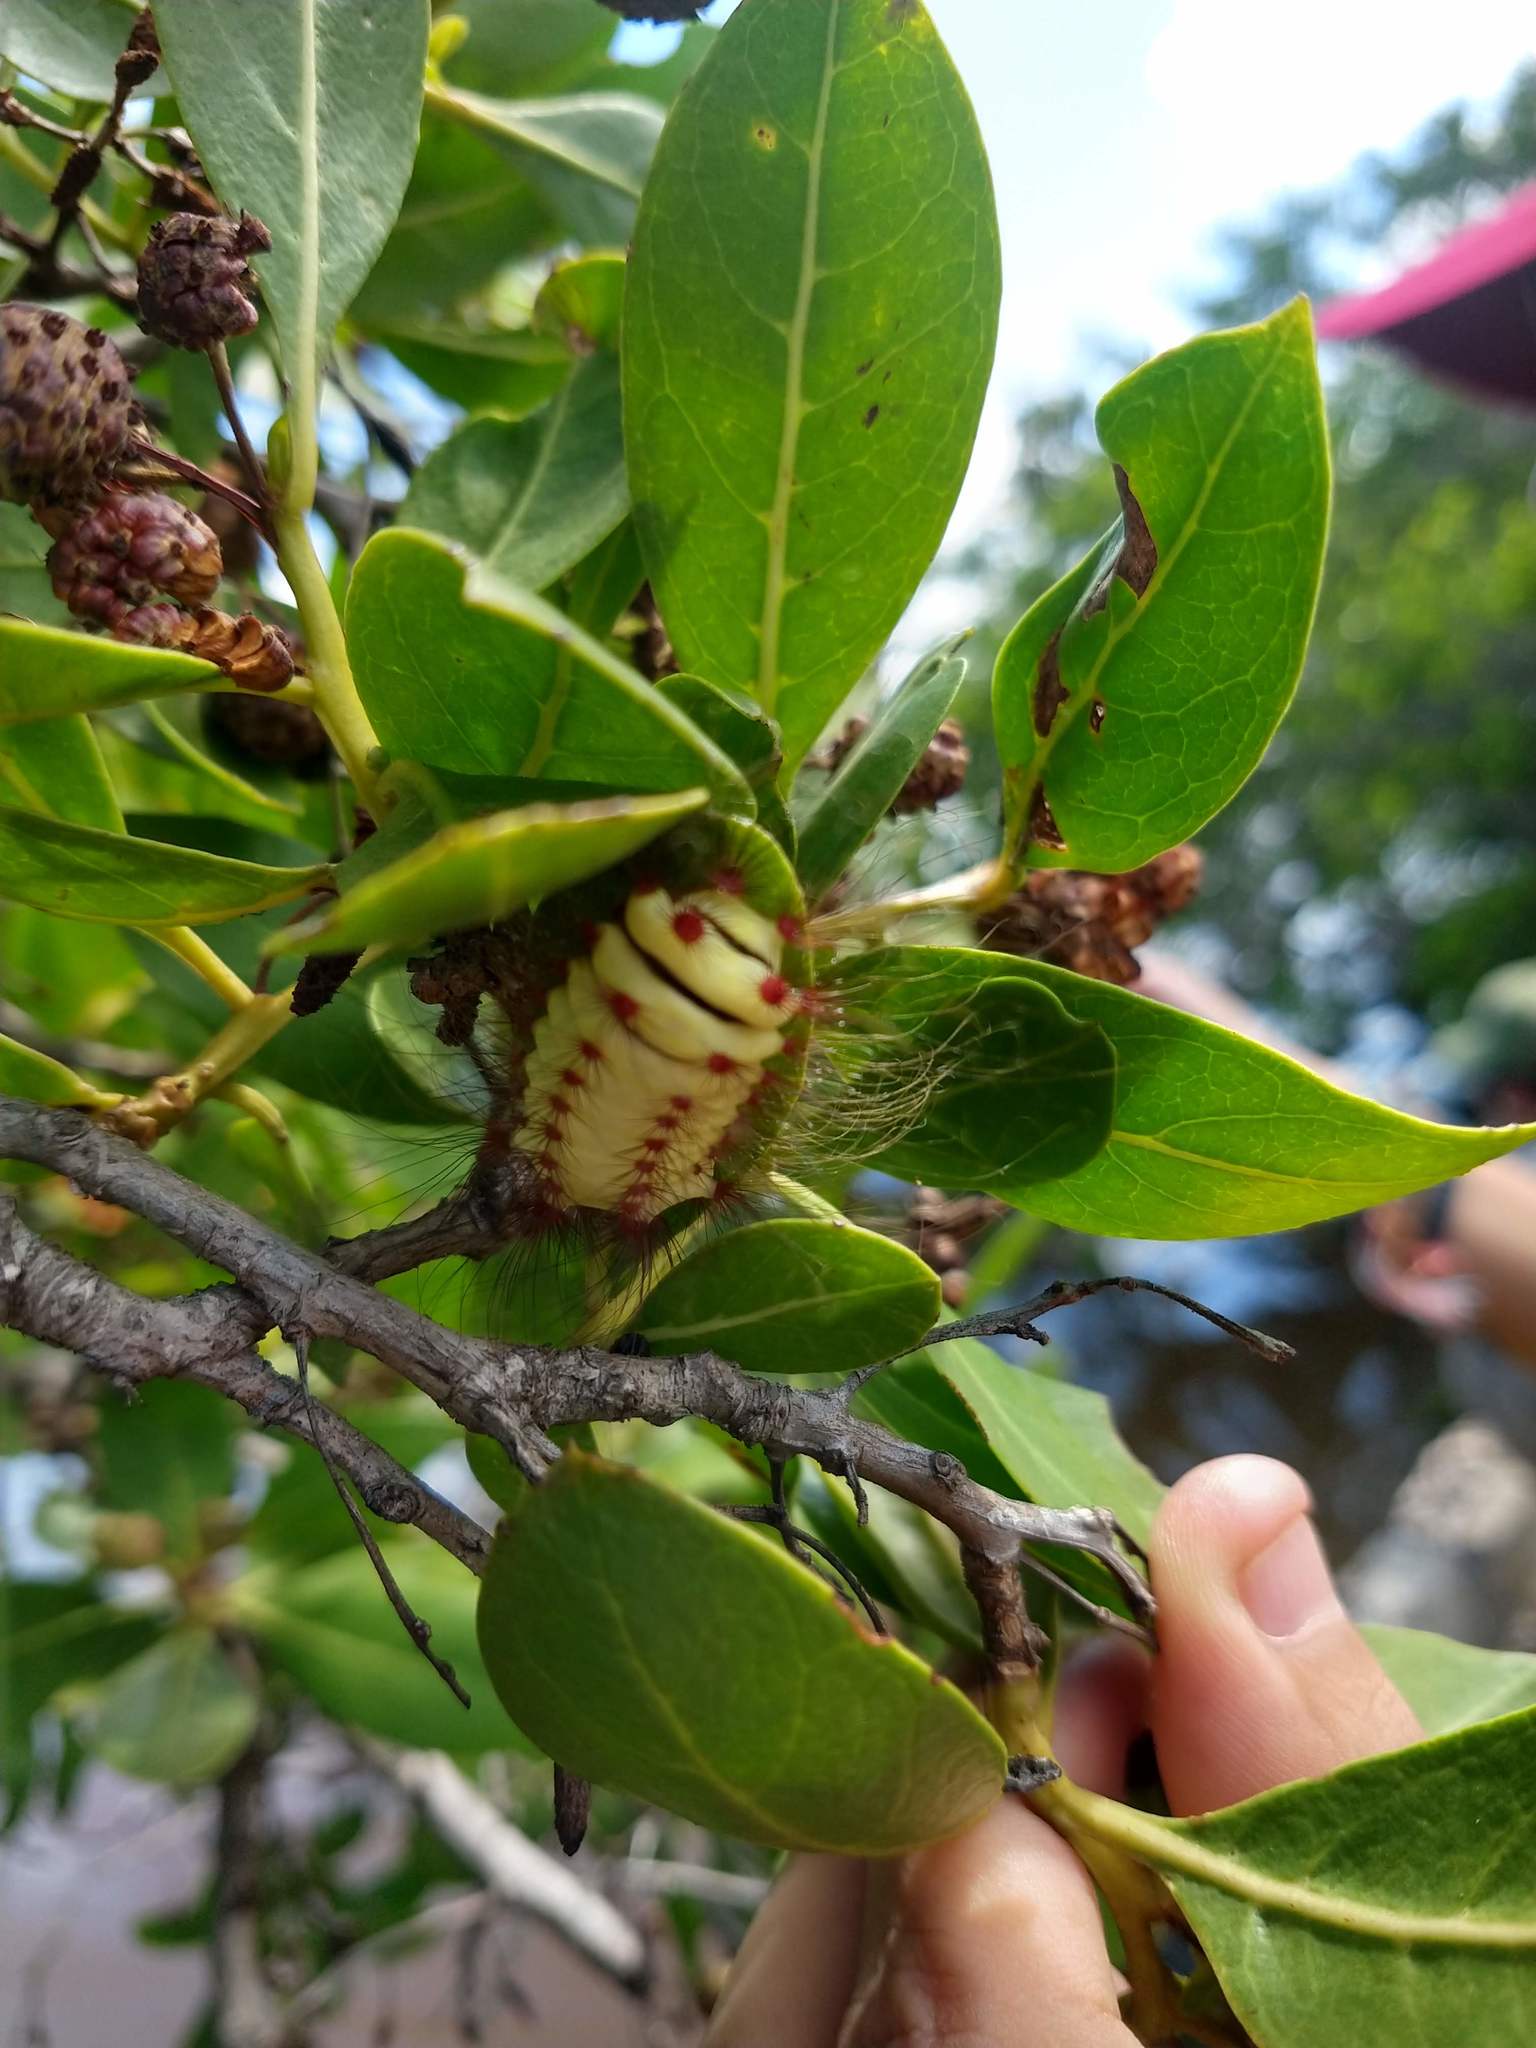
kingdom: Animalia
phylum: Arthropoda
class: Insecta
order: Lepidoptera
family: Megalopygidae
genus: Megalopyge
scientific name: Megalopyge lanata
